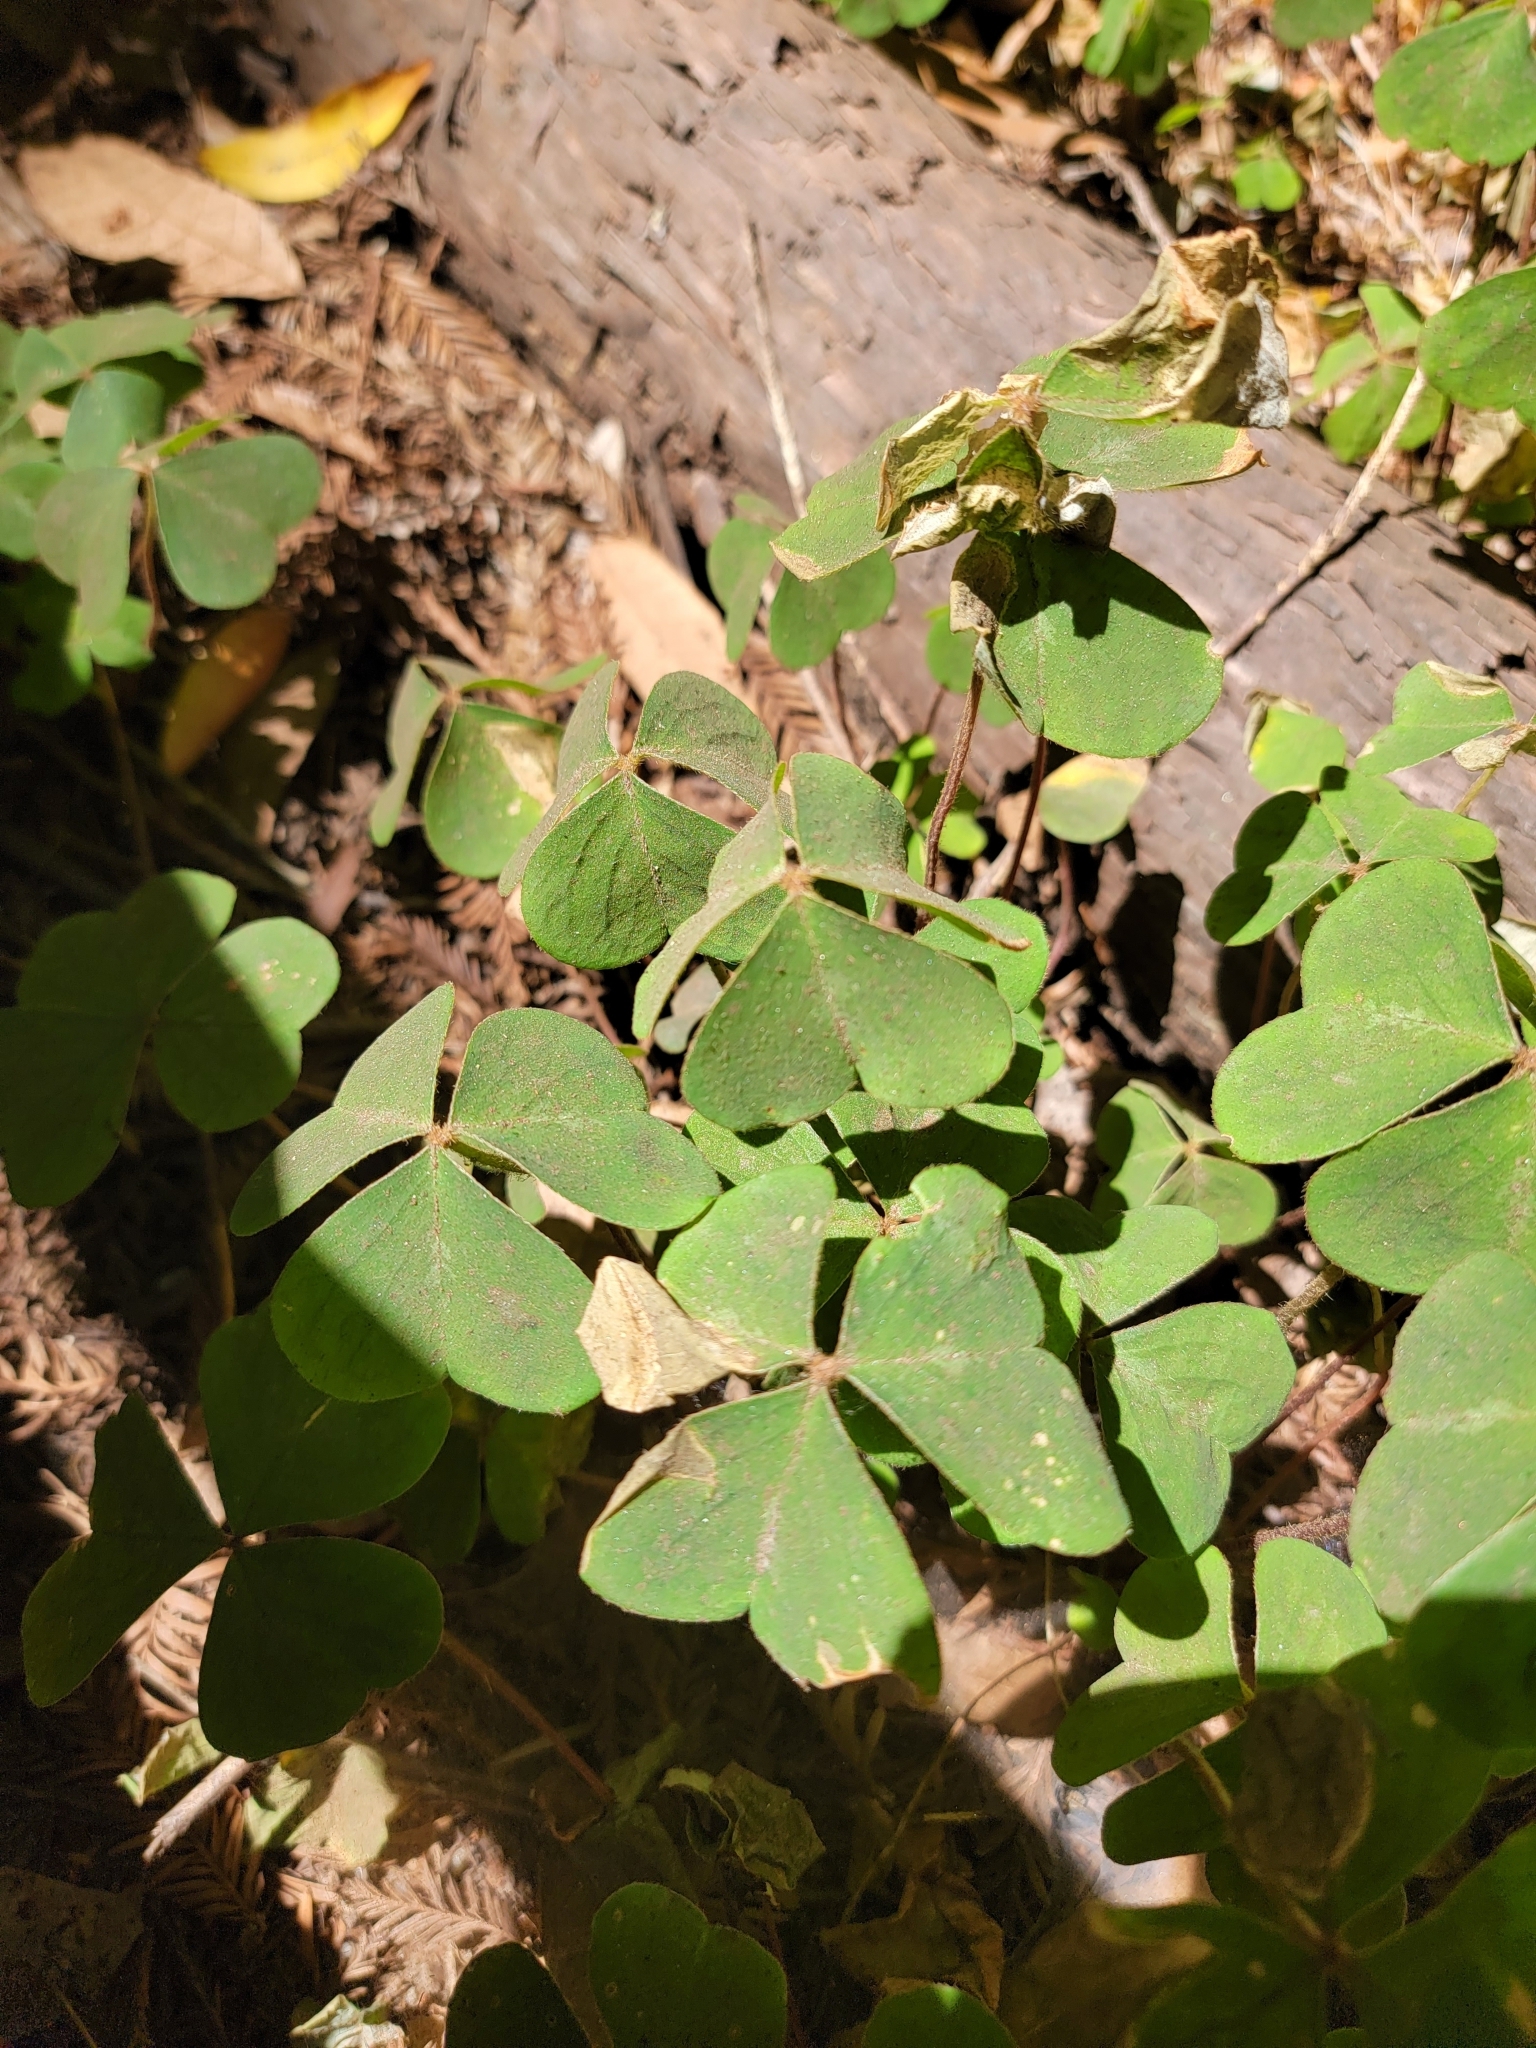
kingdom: Plantae
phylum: Tracheophyta
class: Magnoliopsida
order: Oxalidales
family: Oxalidaceae
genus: Oxalis
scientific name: Oxalis oregana
